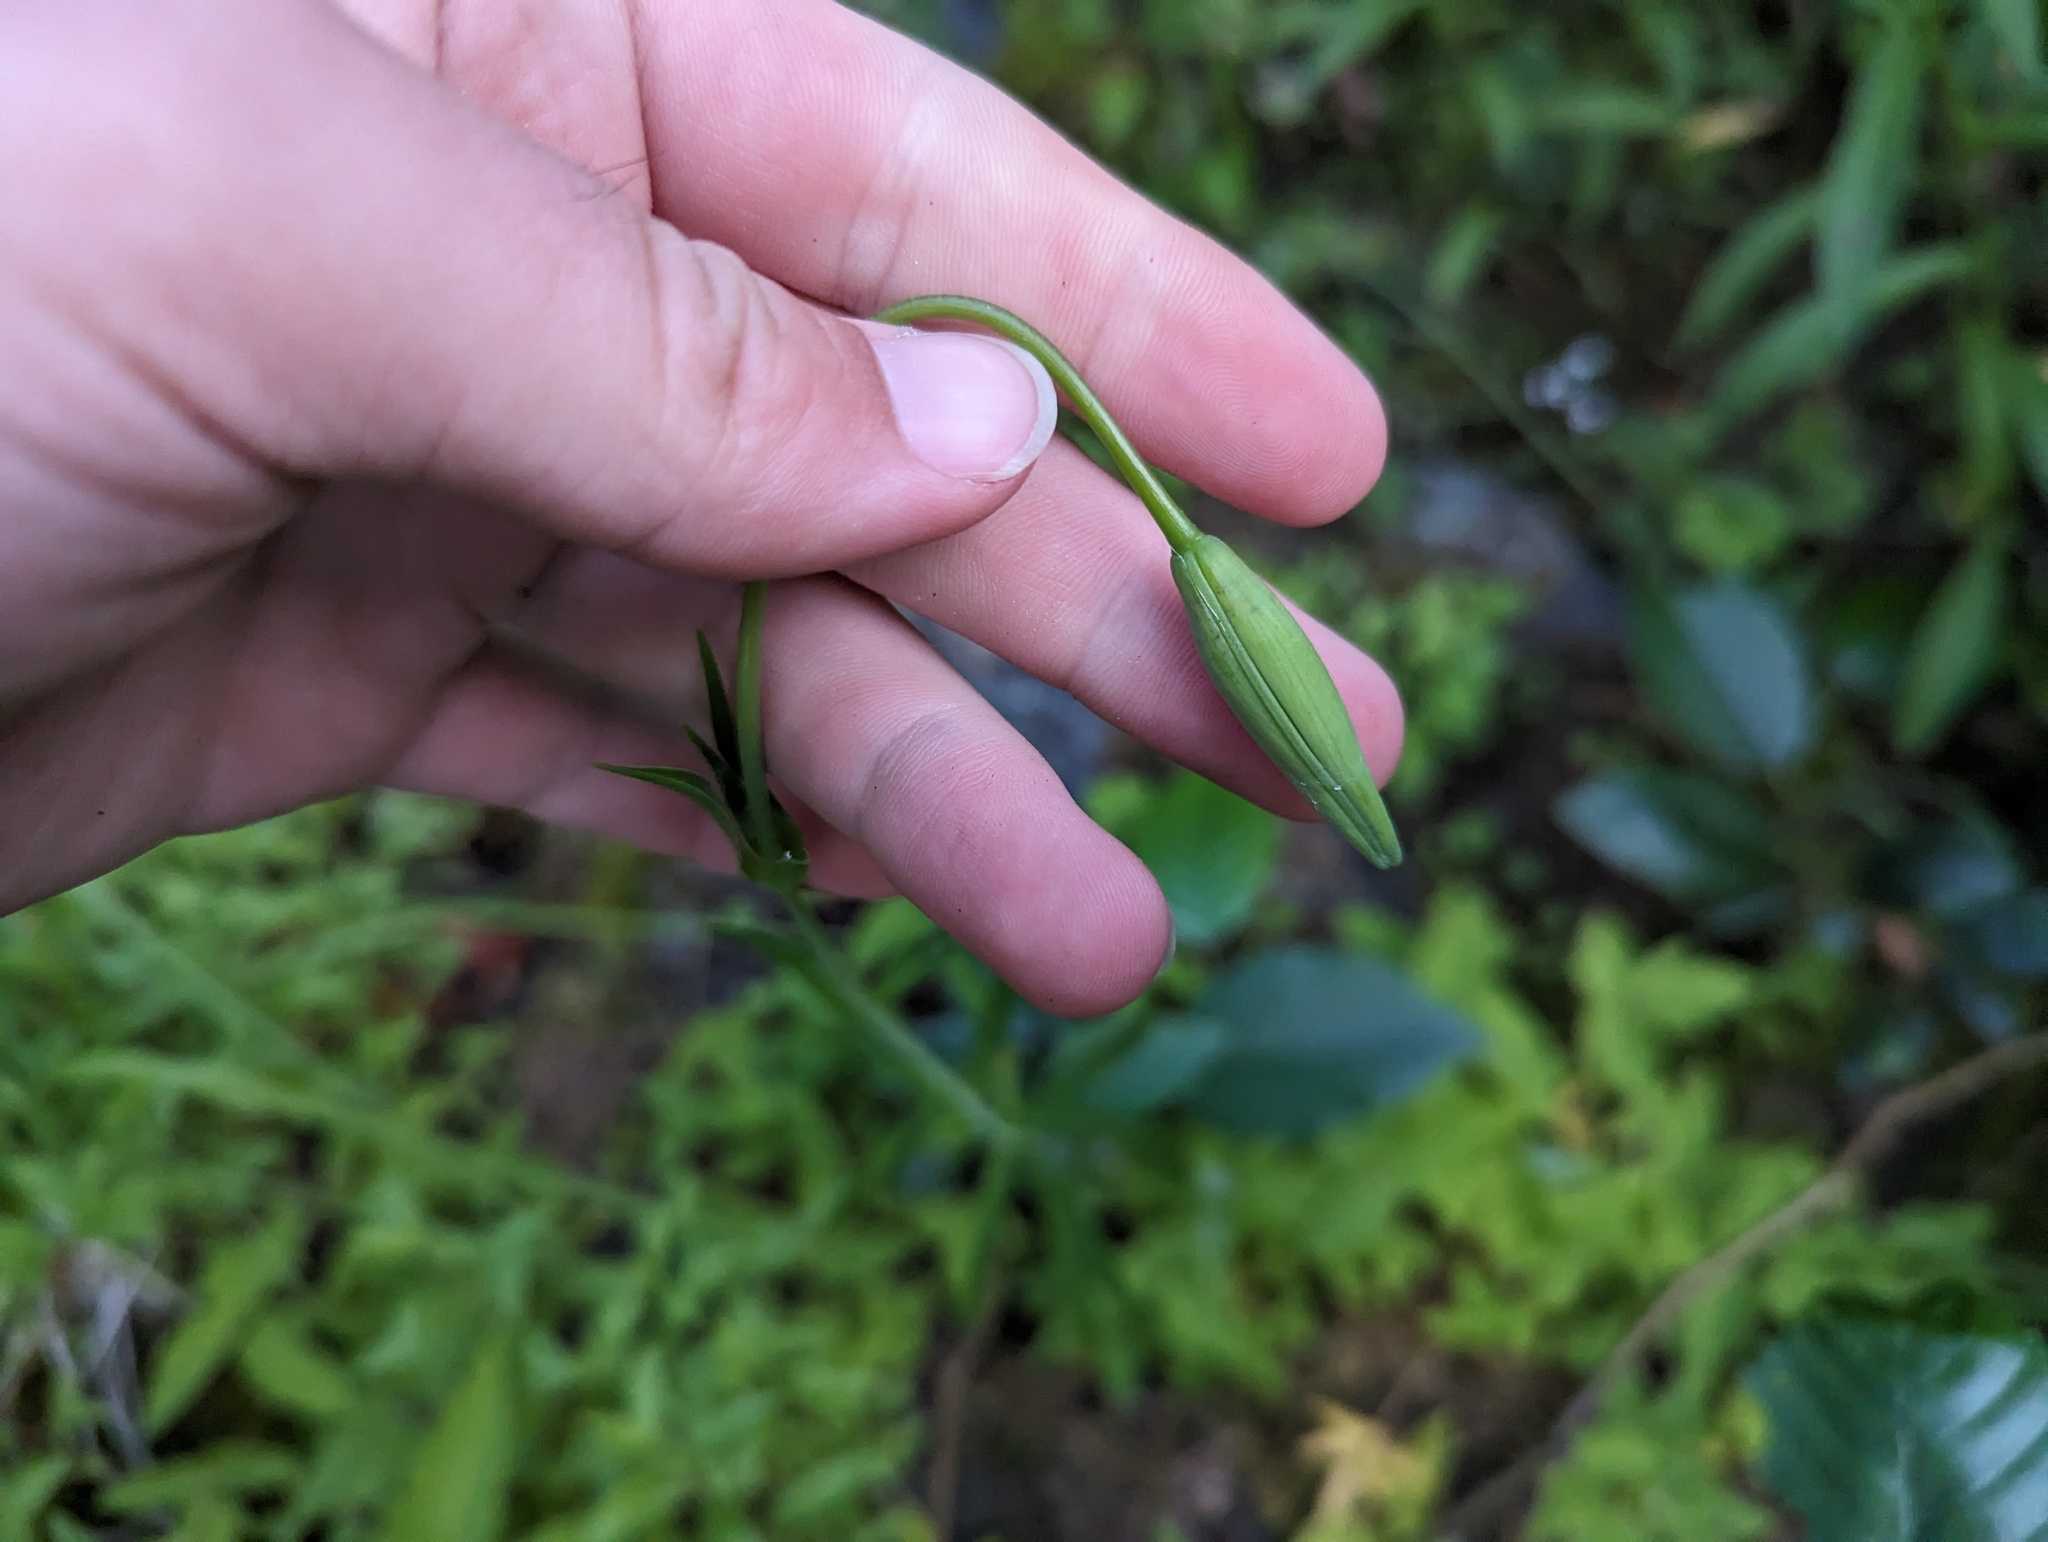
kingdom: Plantae
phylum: Tracheophyta
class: Liliopsida
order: Liliales
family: Liliaceae
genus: Lilium
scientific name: Lilium pardalinum
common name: Panther lily
